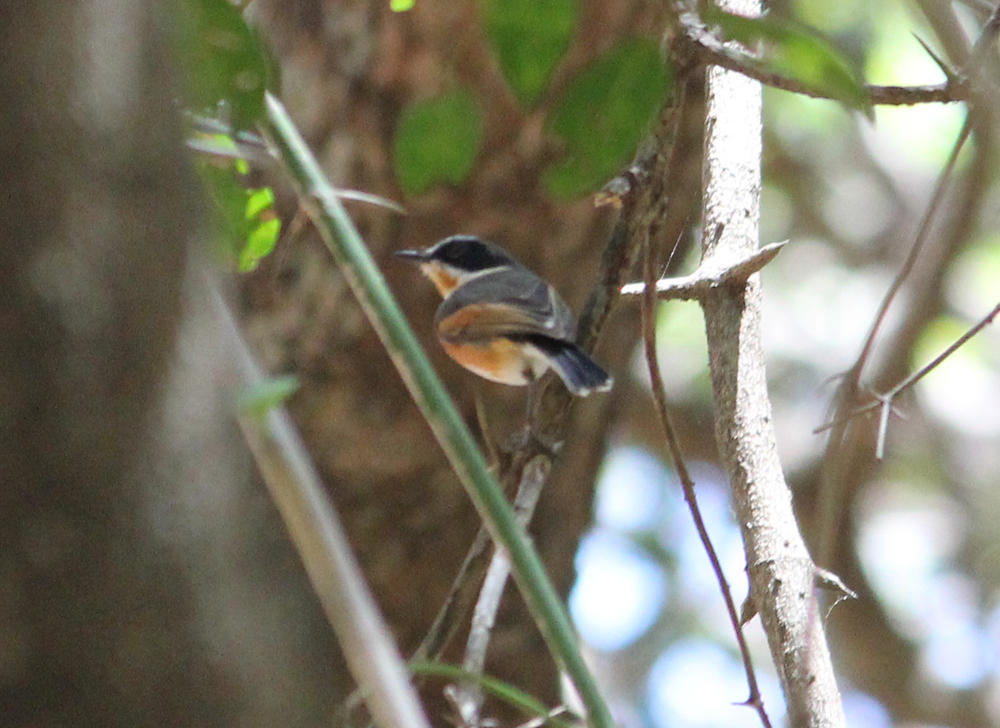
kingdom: Animalia
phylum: Chordata
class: Aves
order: Passeriformes
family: Platysteiridae
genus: Batis
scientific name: Batis capensis
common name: Cape batis
